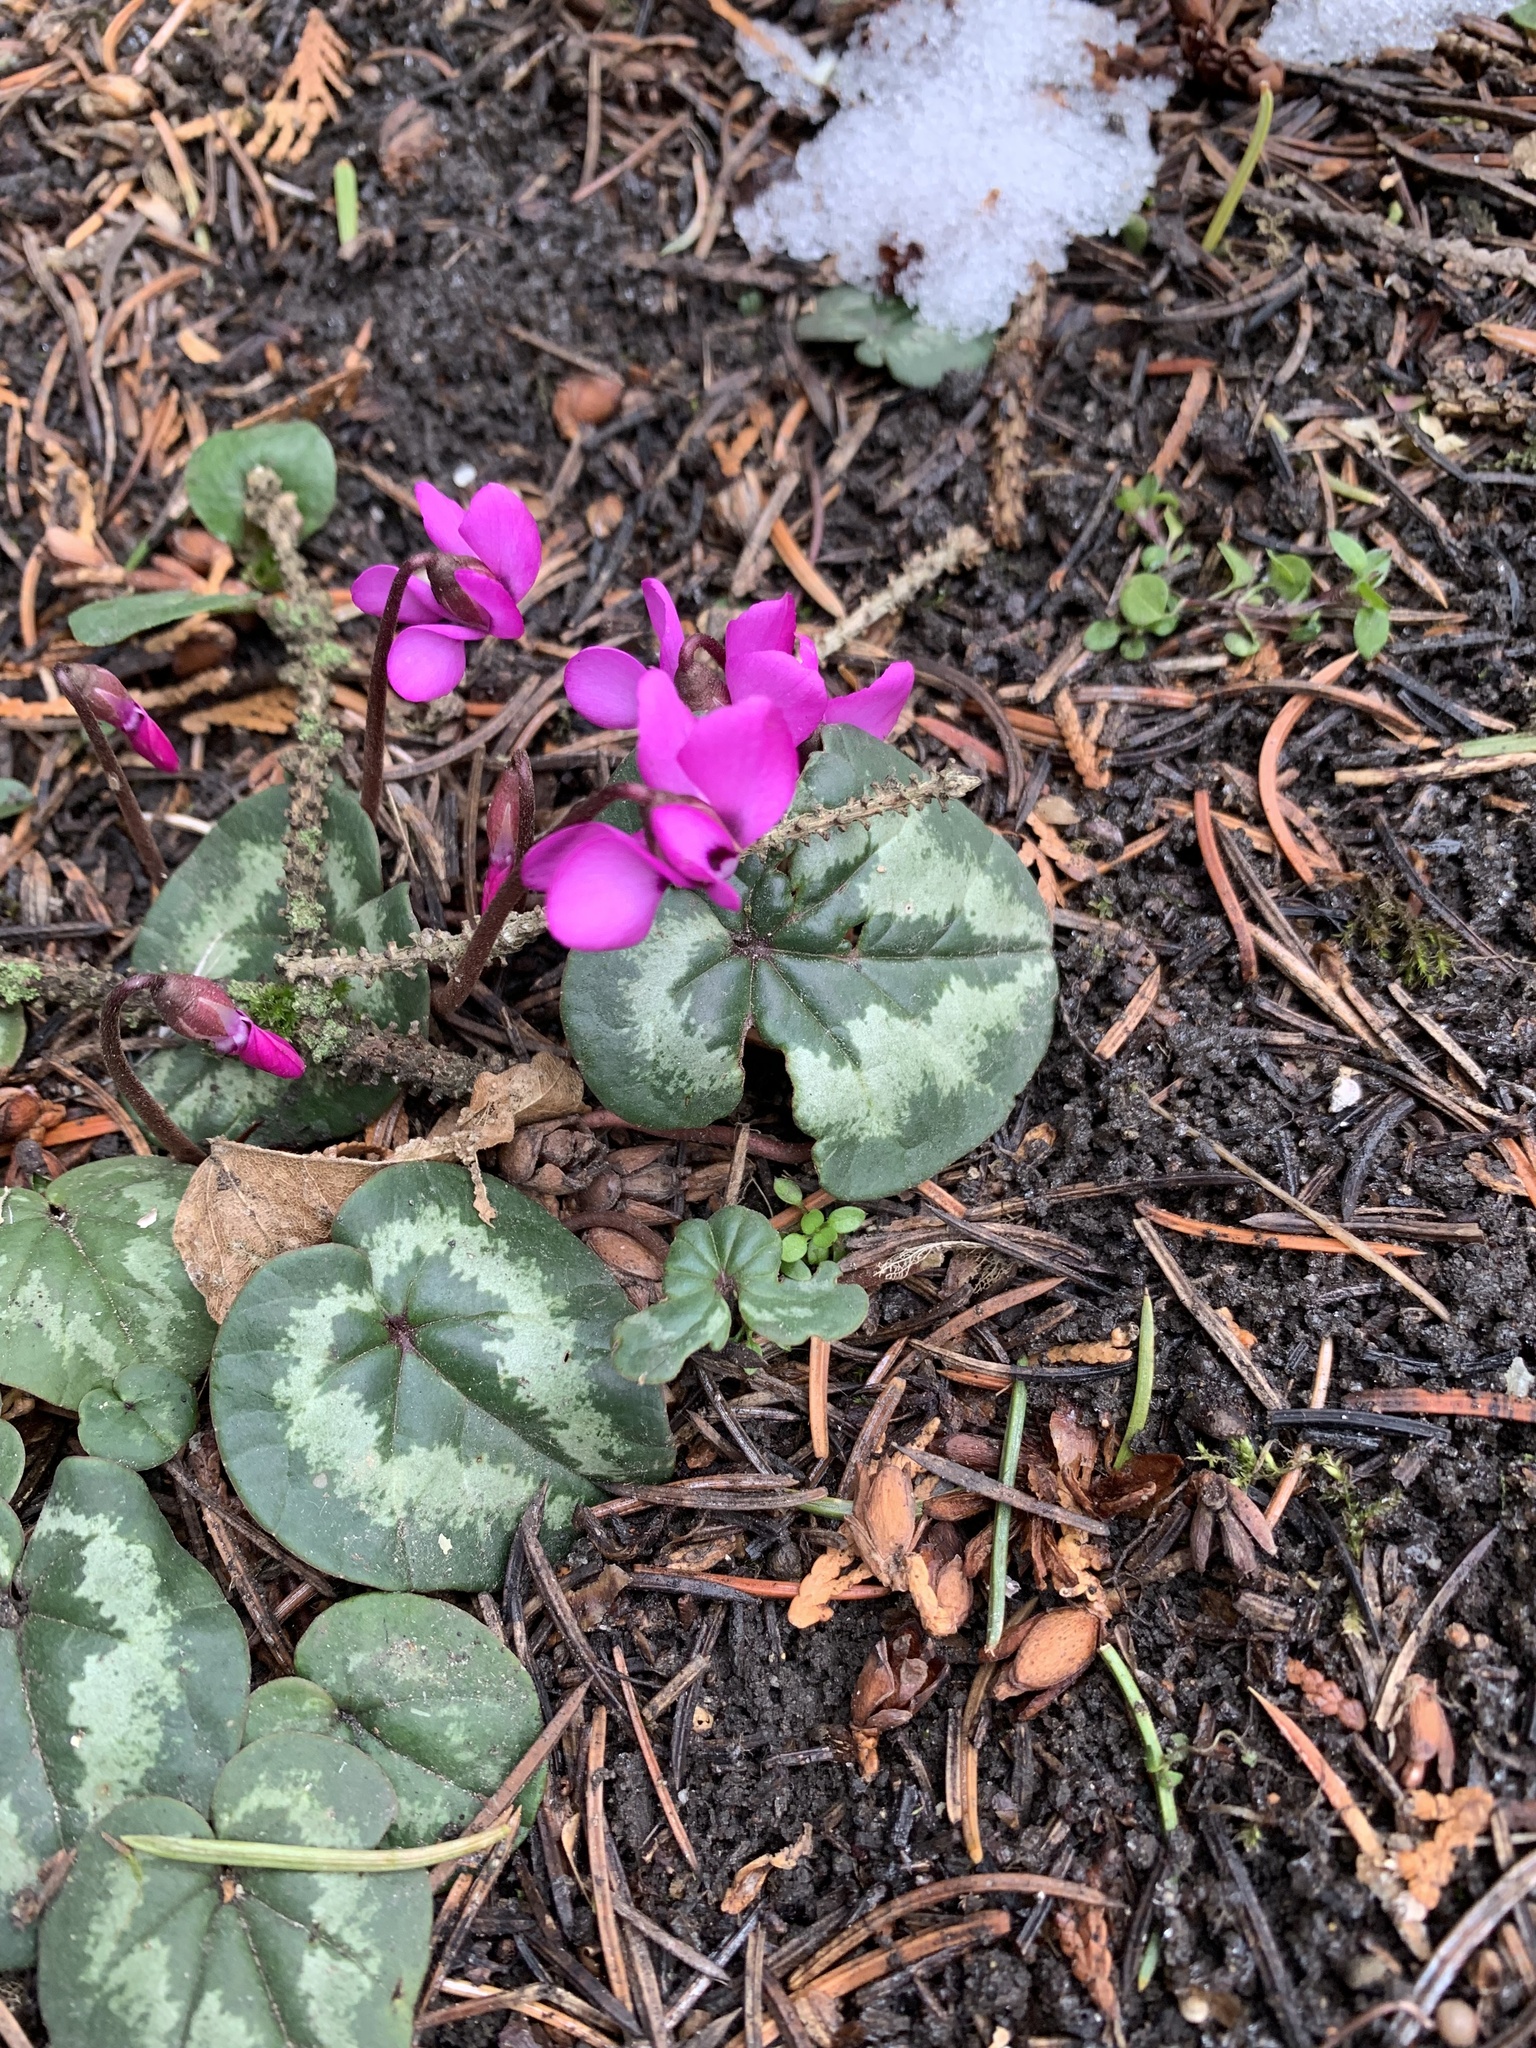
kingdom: Plantae
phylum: Tracheophyta
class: Magnoliopsida
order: Ericales
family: Primulaceae
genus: Cyclamen
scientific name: Cyclamen coum
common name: Eastern sowbread
